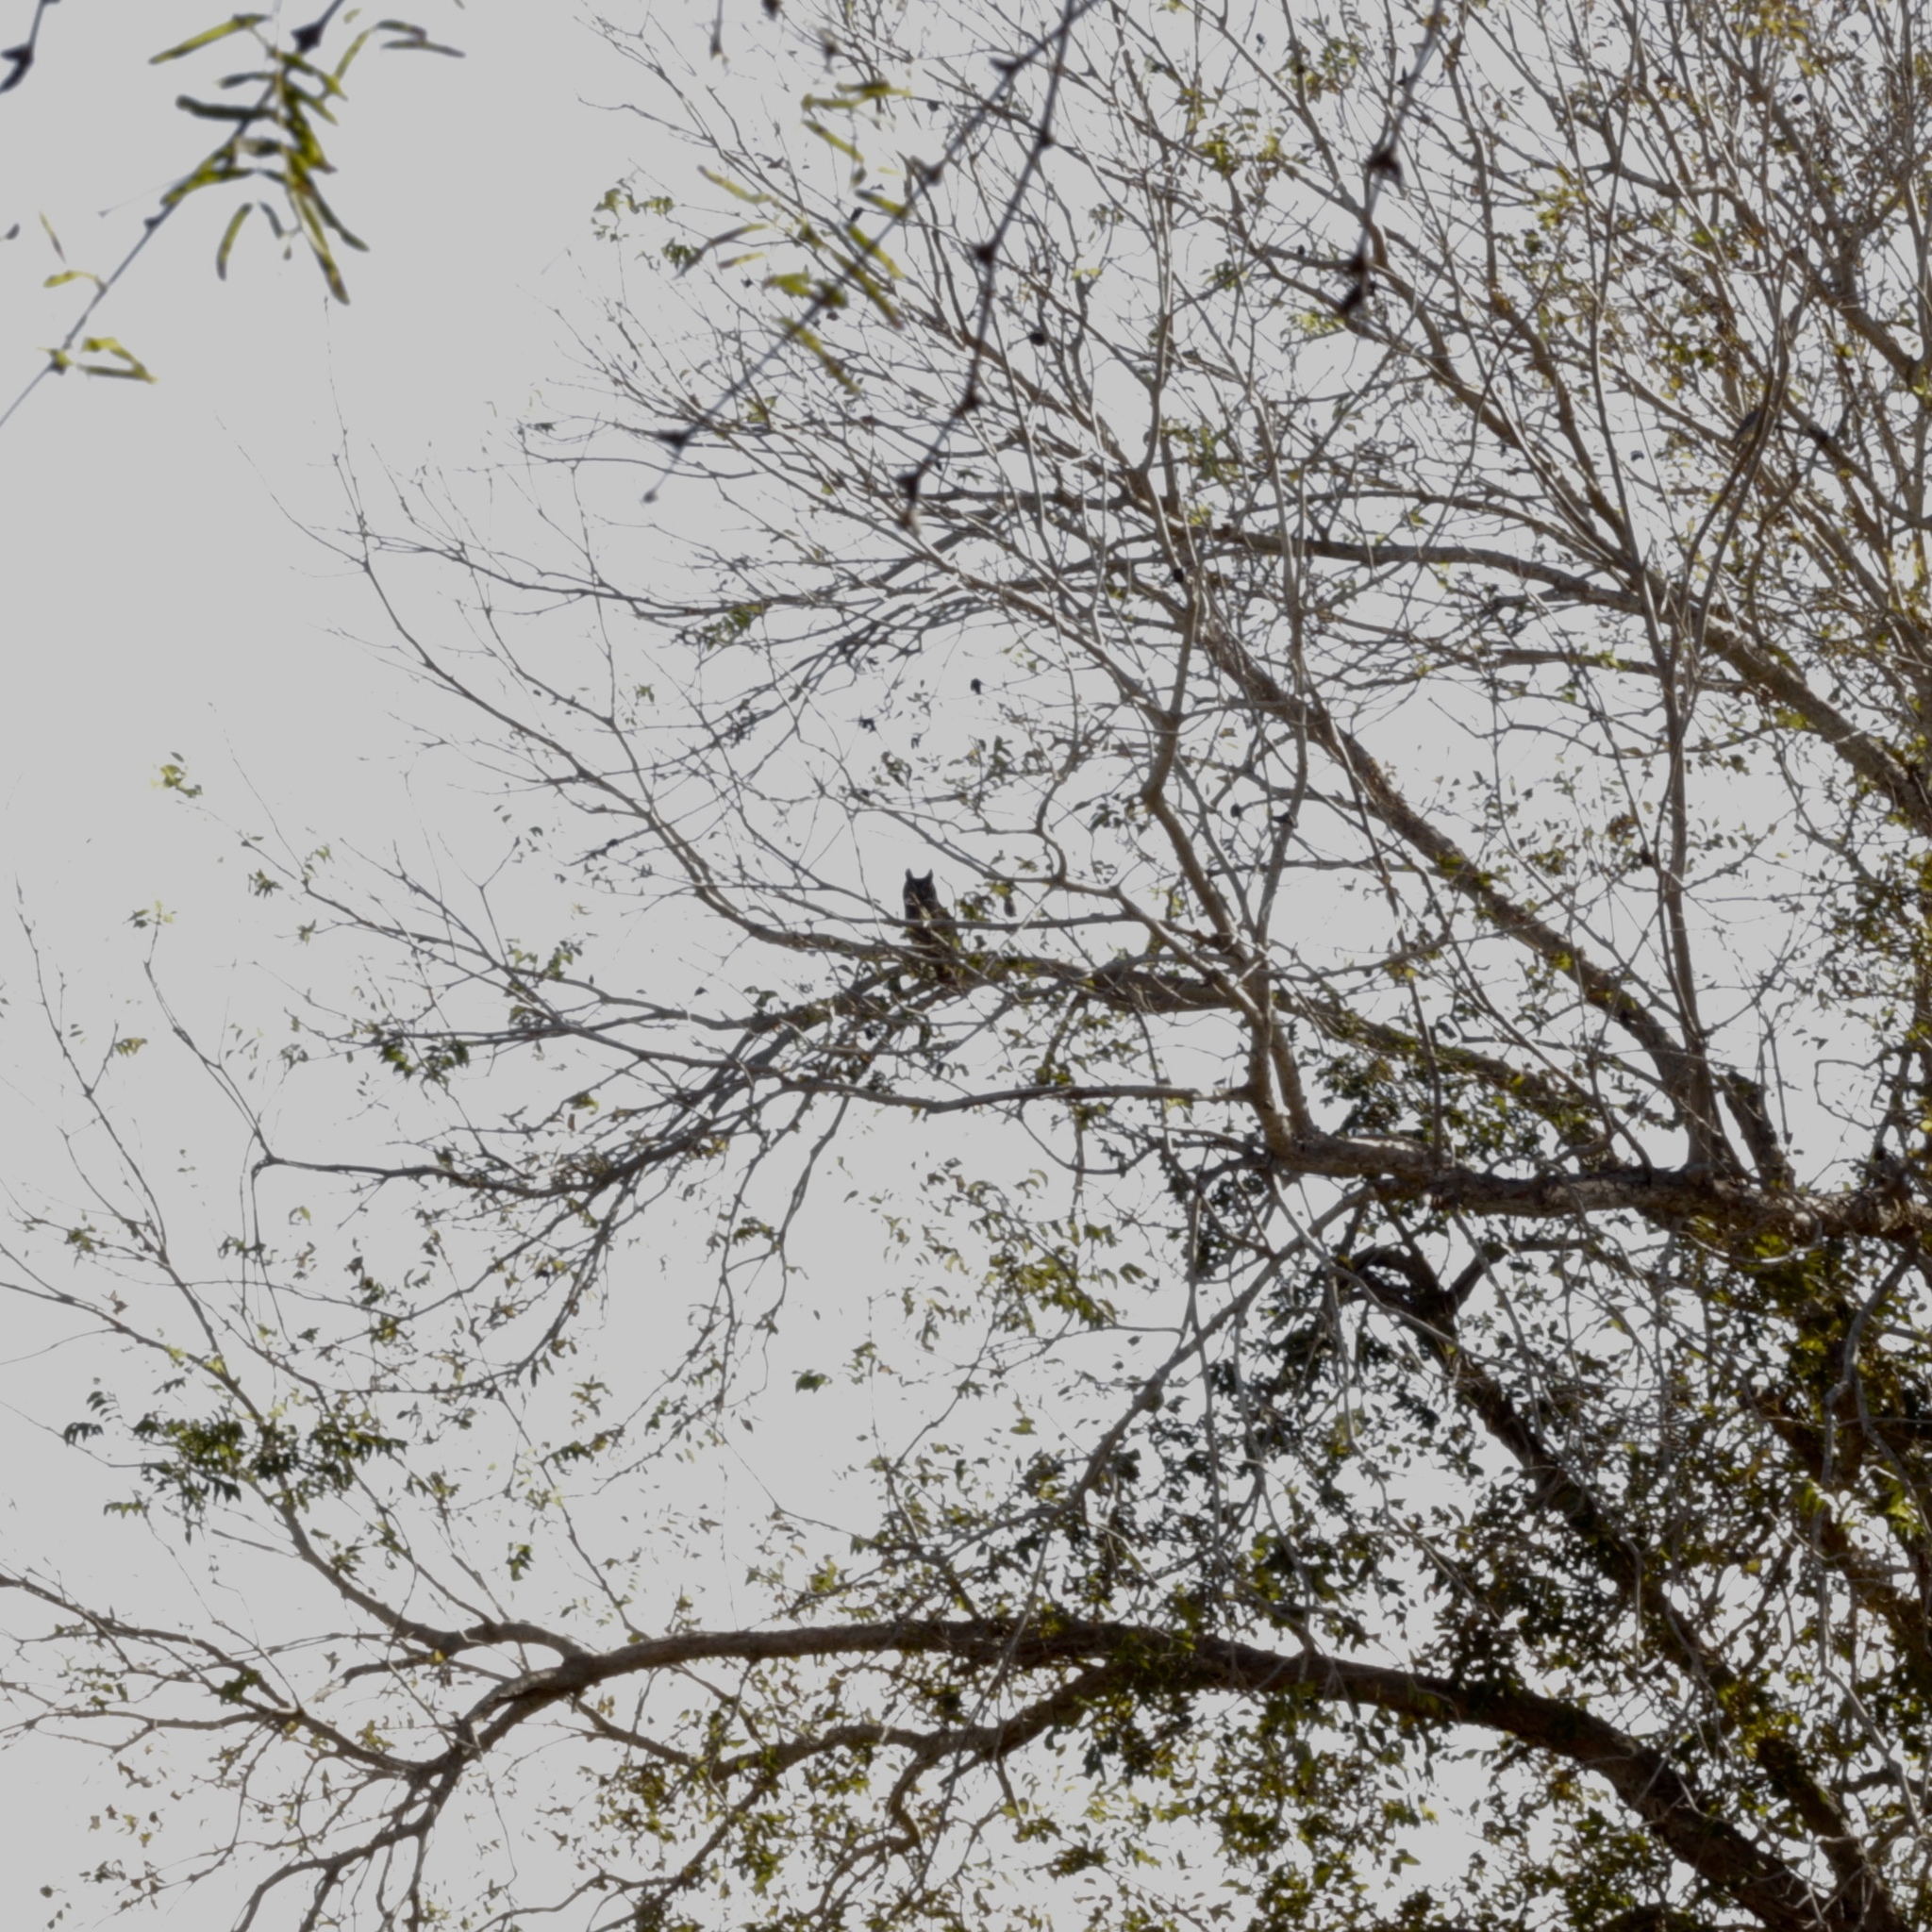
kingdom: Animalia
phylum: Chordata
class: Aves
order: Strigiformes
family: Strigidae
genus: Bubo
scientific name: Bubo virginianus
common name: Great horned owl
